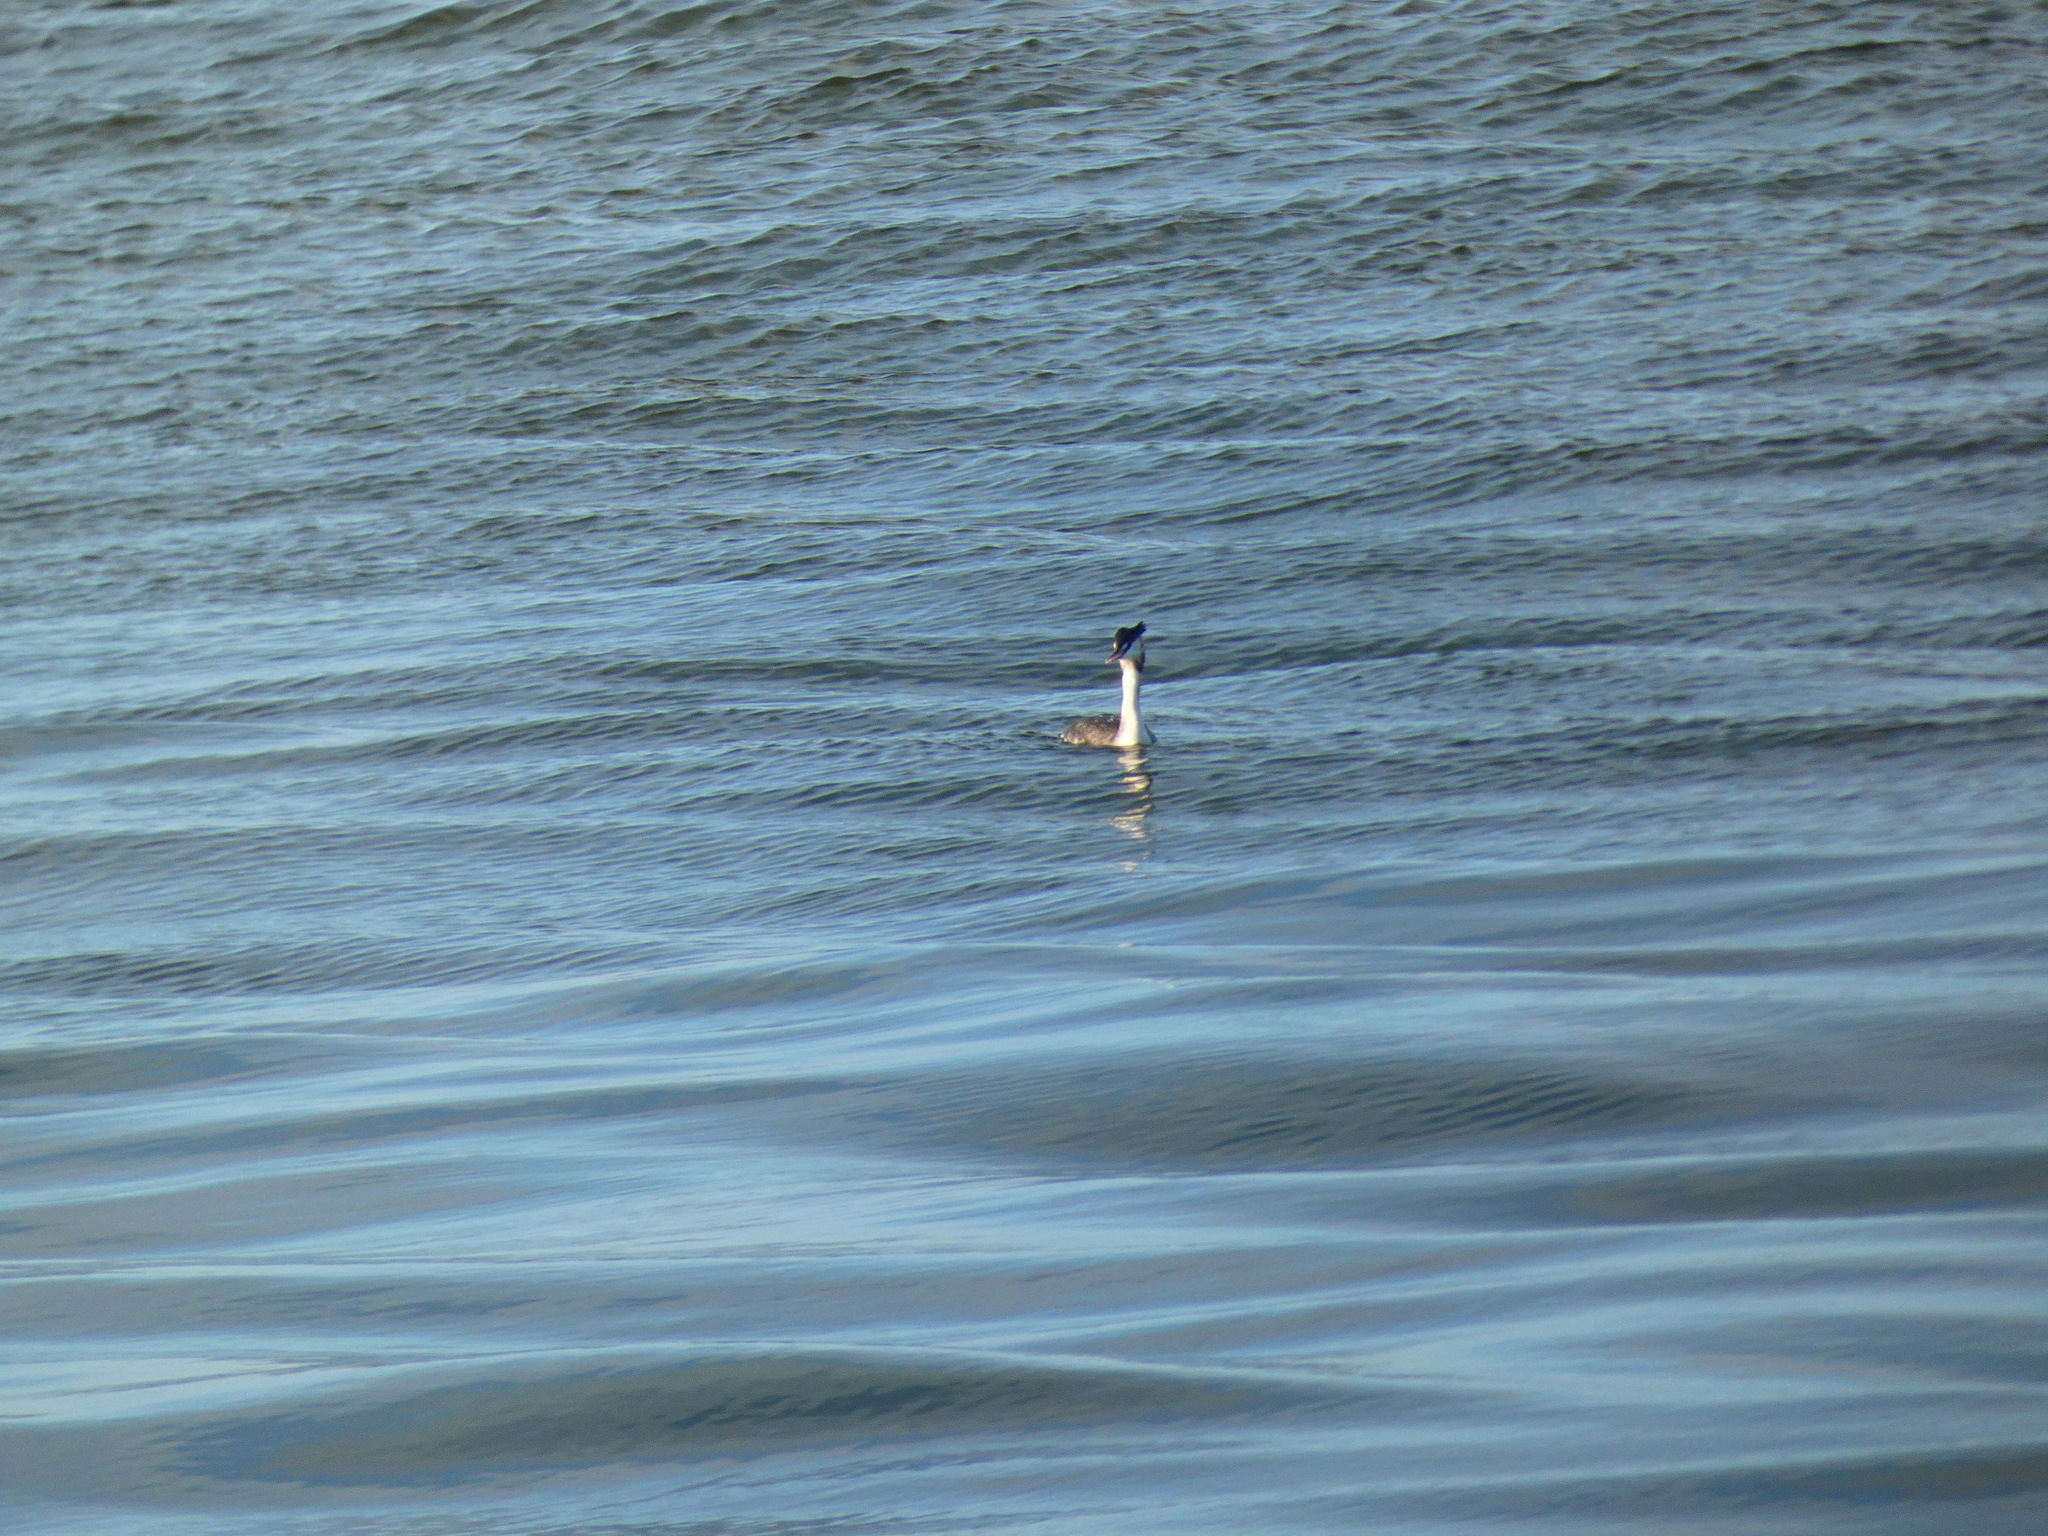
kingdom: Animalia
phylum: Chordata
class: Aves
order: Podicipediformes
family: Podicipedidae
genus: Podiceps
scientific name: Podiceps cristatus
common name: Great crested grebe
